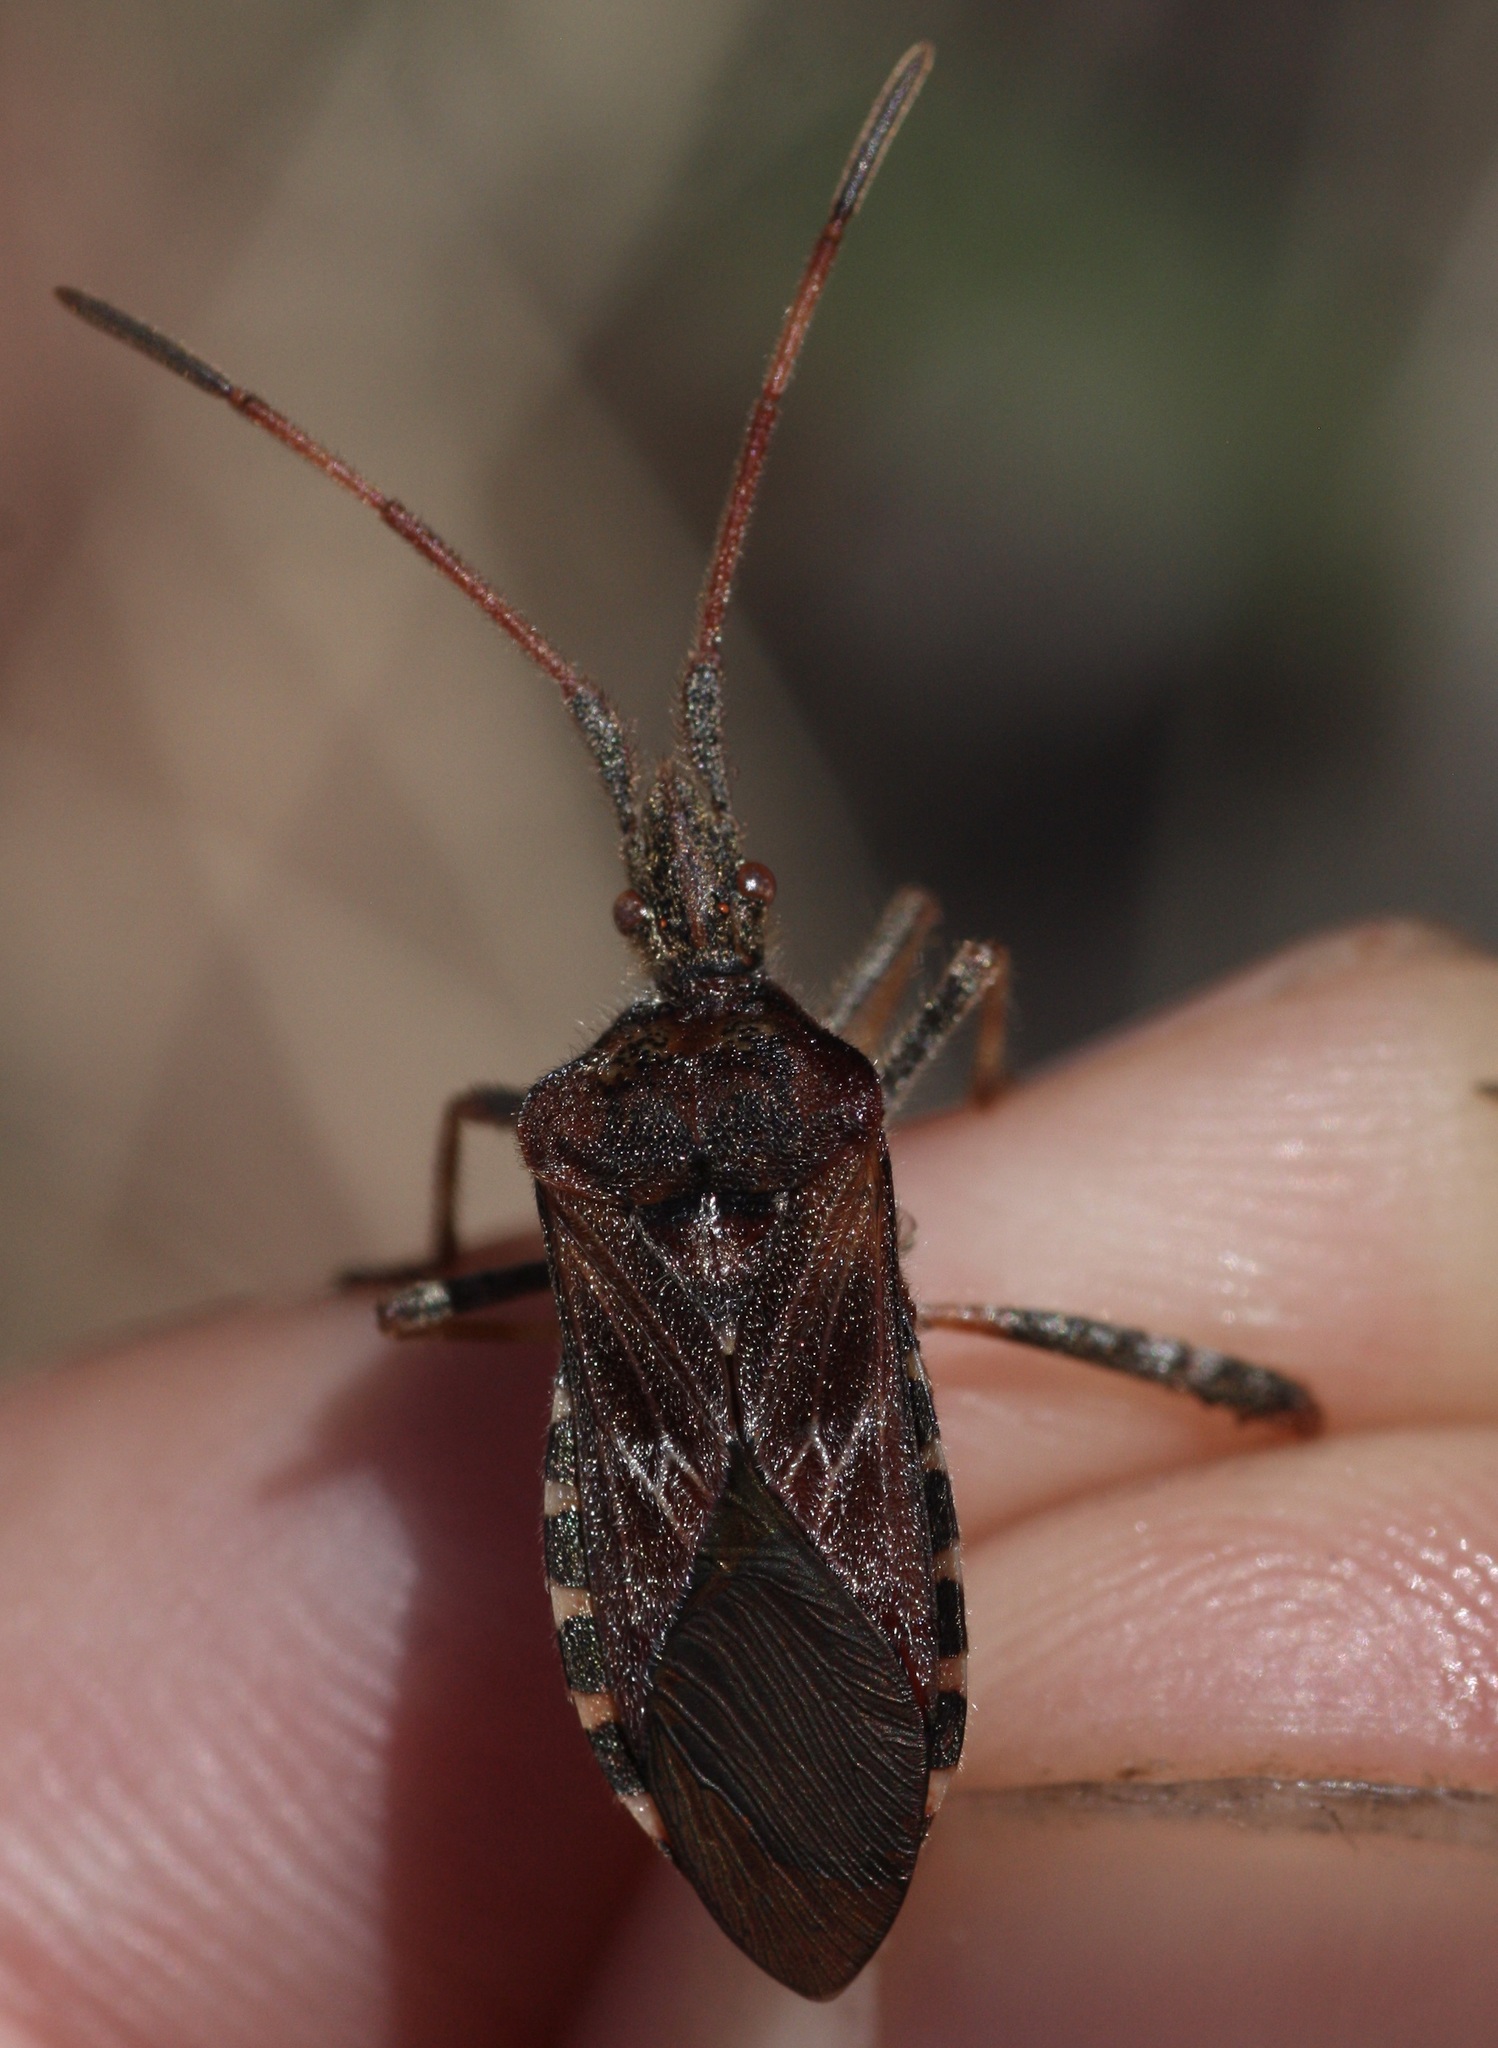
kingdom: Animalia
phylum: Arthropoda
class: Insecta
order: Hemiptera
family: Coreidae
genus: Leptoglossus
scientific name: Leptoglossus occidentalis
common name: Western conifer-seed bug
